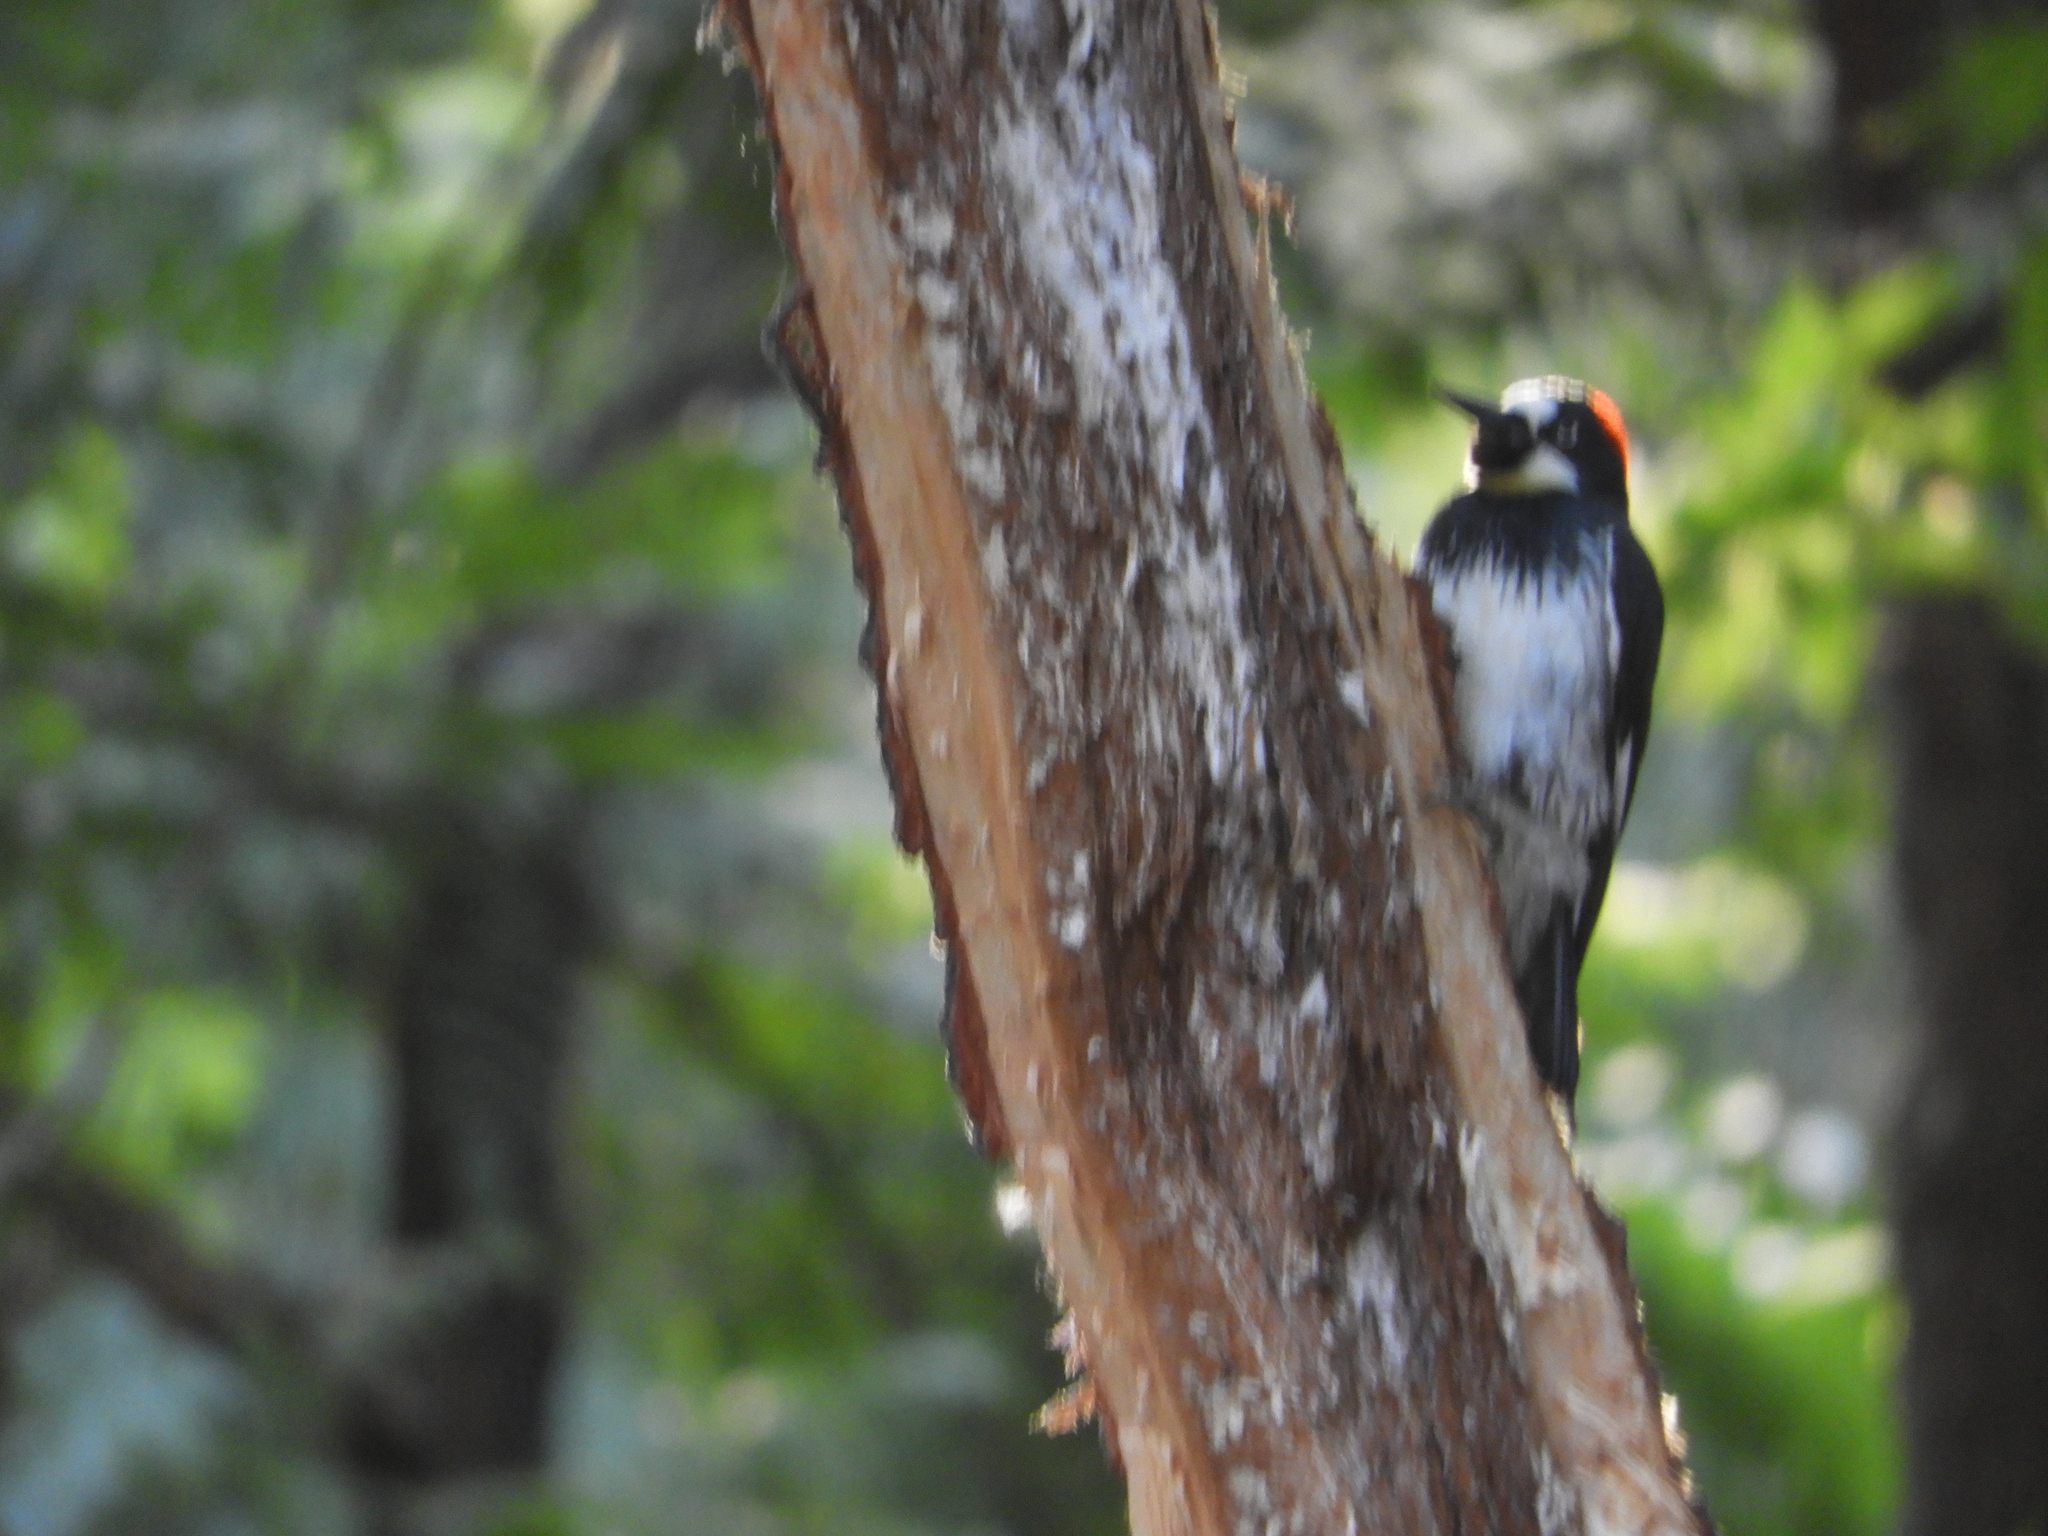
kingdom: Animalia
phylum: Chordata
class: Aves
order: Piciformes
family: Picidae
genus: Melanerpes
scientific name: Melanerpes formicivorus
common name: Acorn woodpecker
